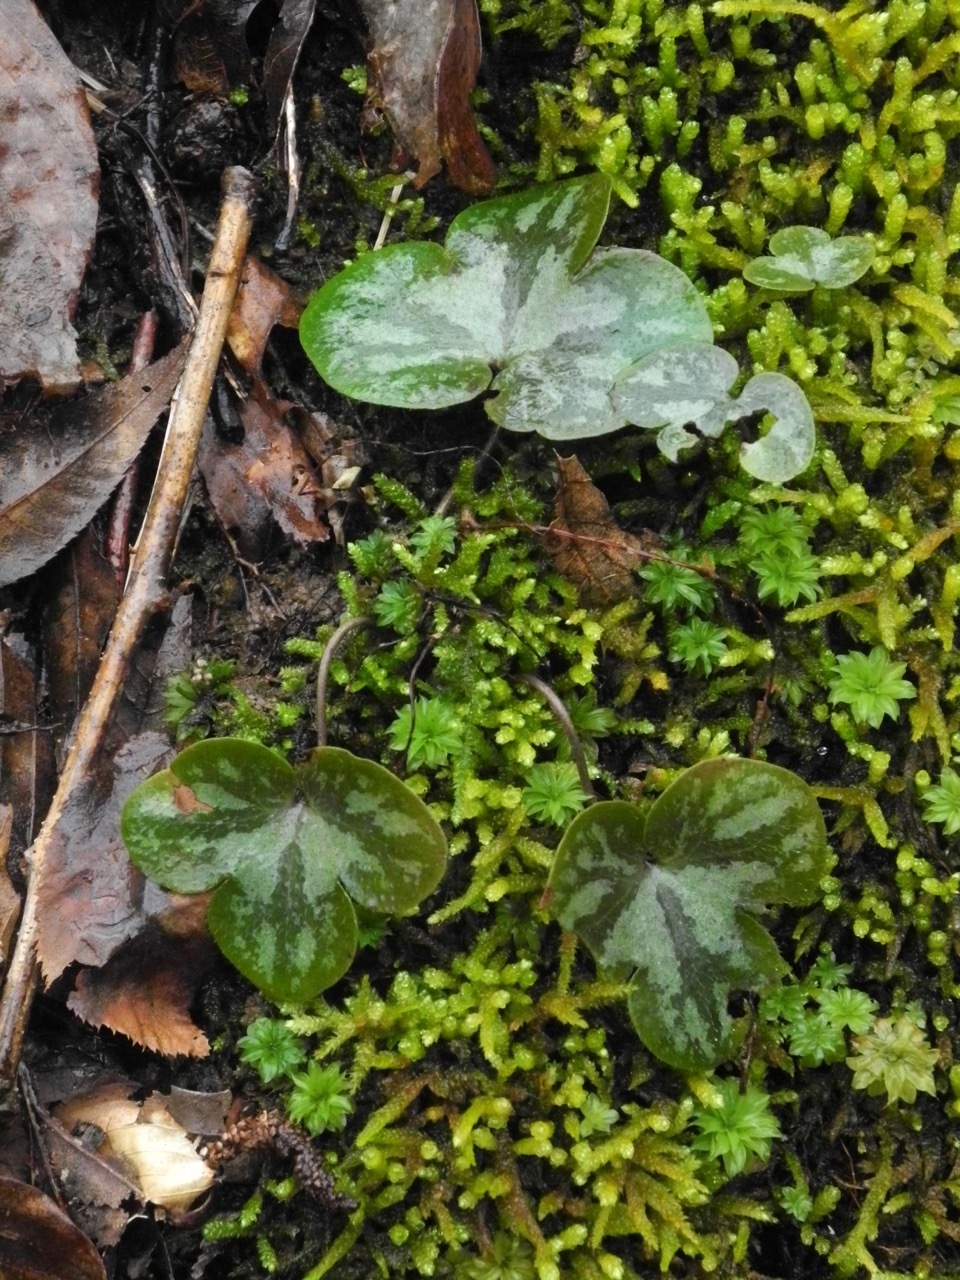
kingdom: Plantae
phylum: Tracheophyta
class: Magnoliopsida
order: Ranunculales
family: Ranunculaceae
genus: Hepatica
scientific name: Hepatica americana
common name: American hepatica
